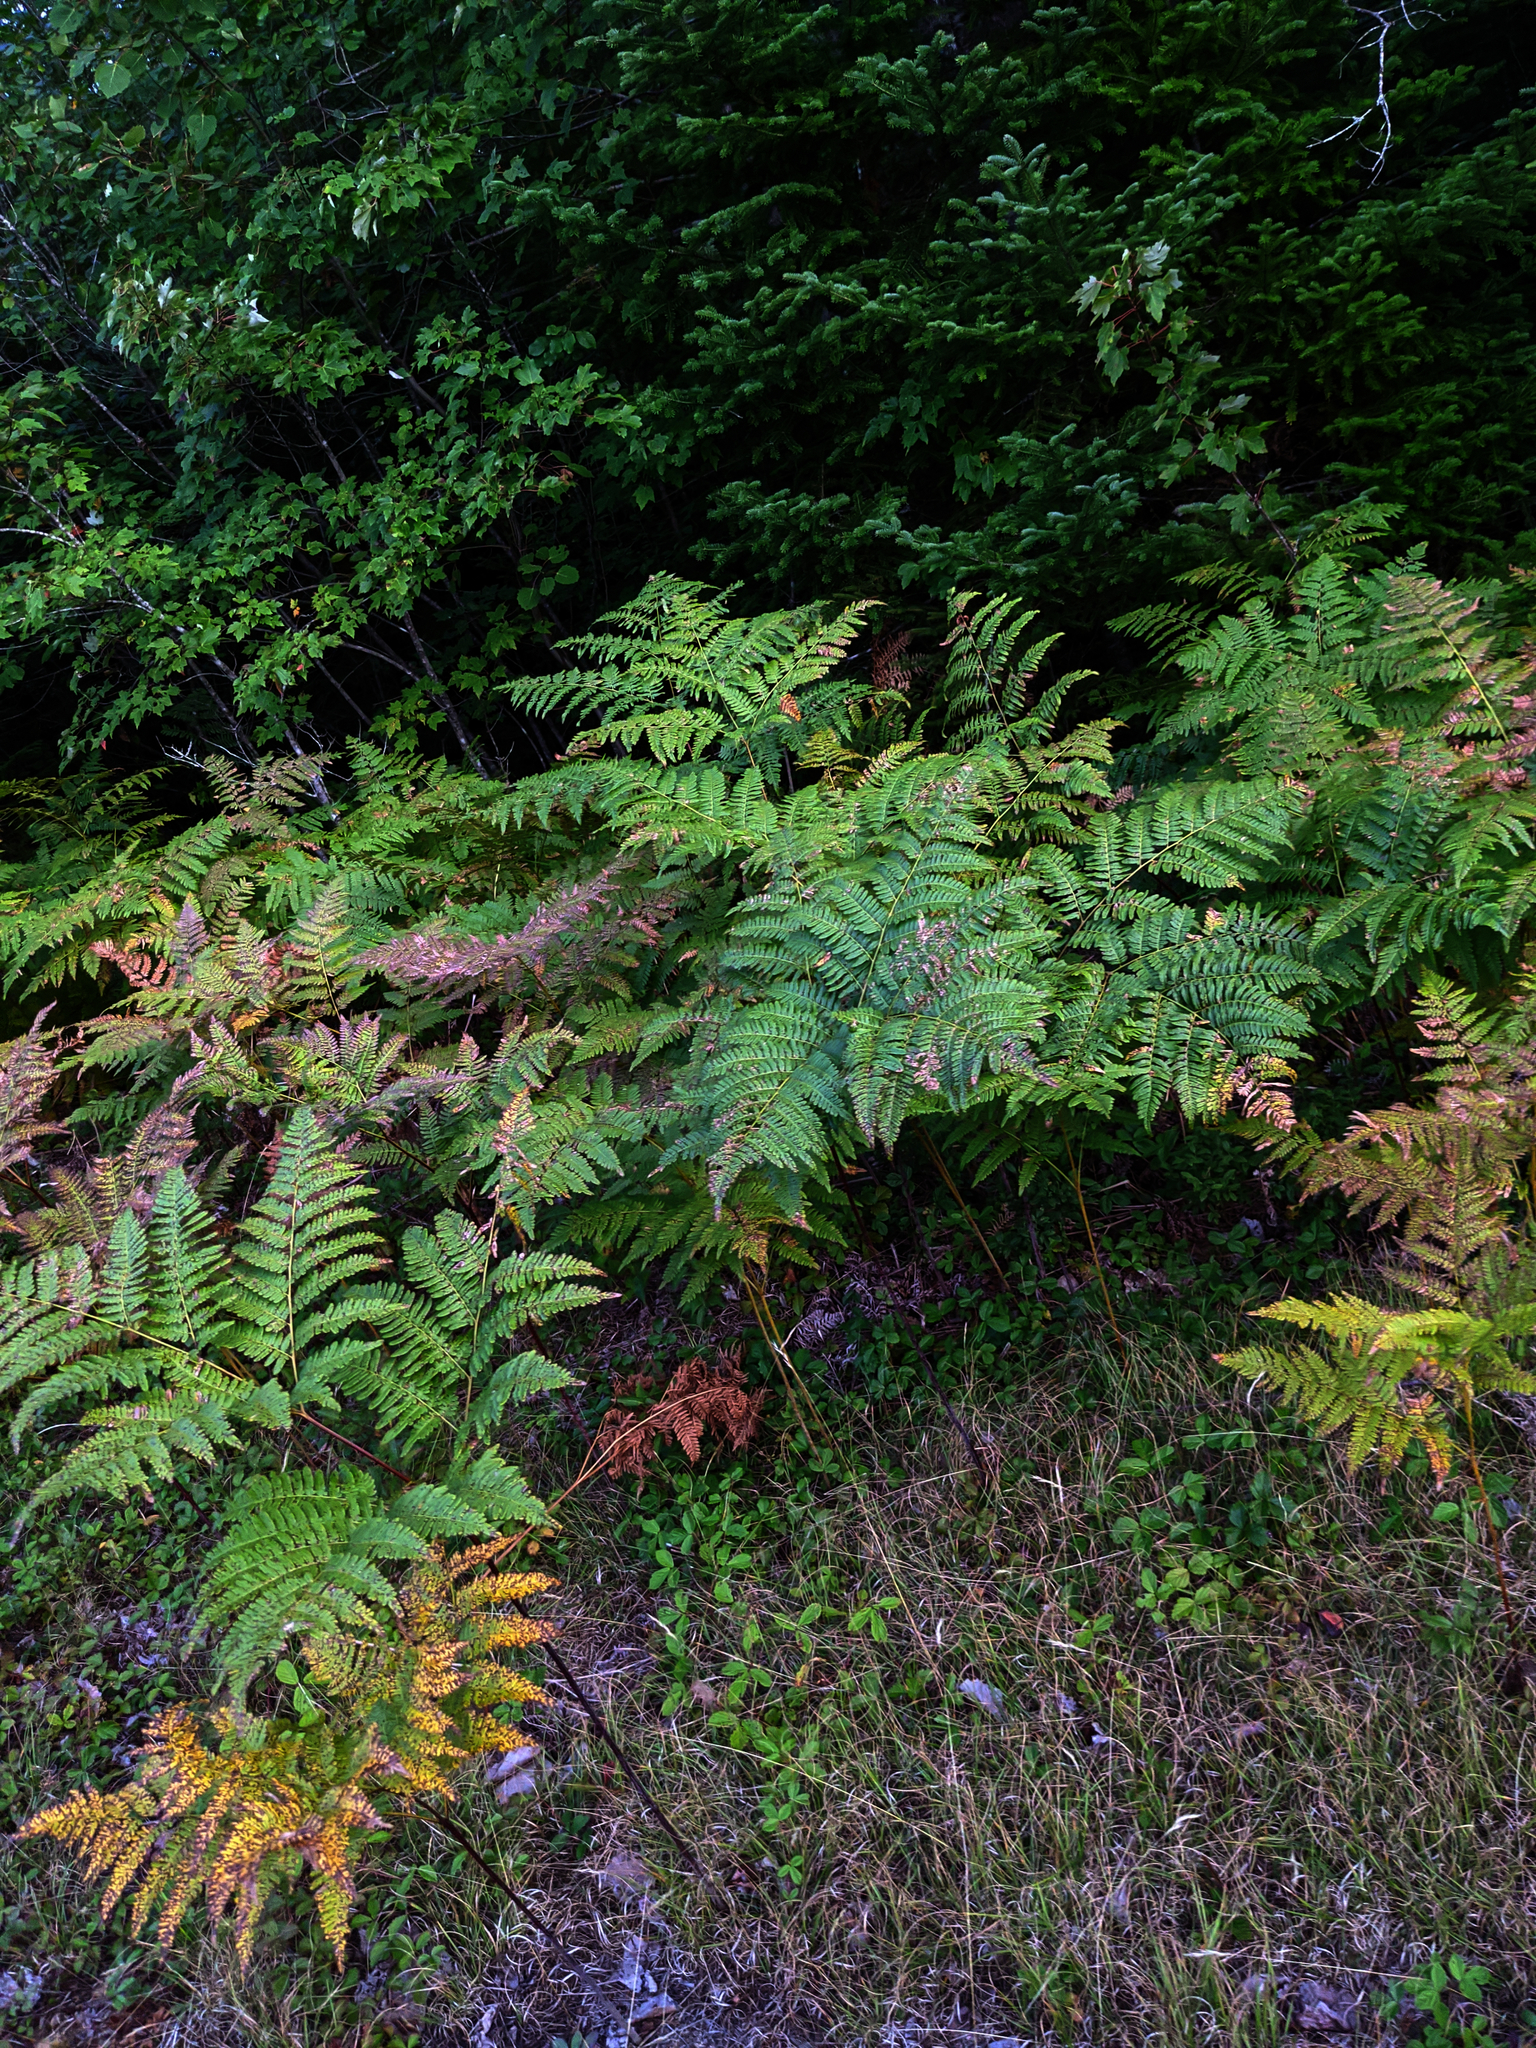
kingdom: Plantae
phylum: Tracheophyta
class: Polypodiopsida
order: Polypodiales
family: Dennstaedtiaceae
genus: Pteridium
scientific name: Pteridium aquilinum
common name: Bracken
